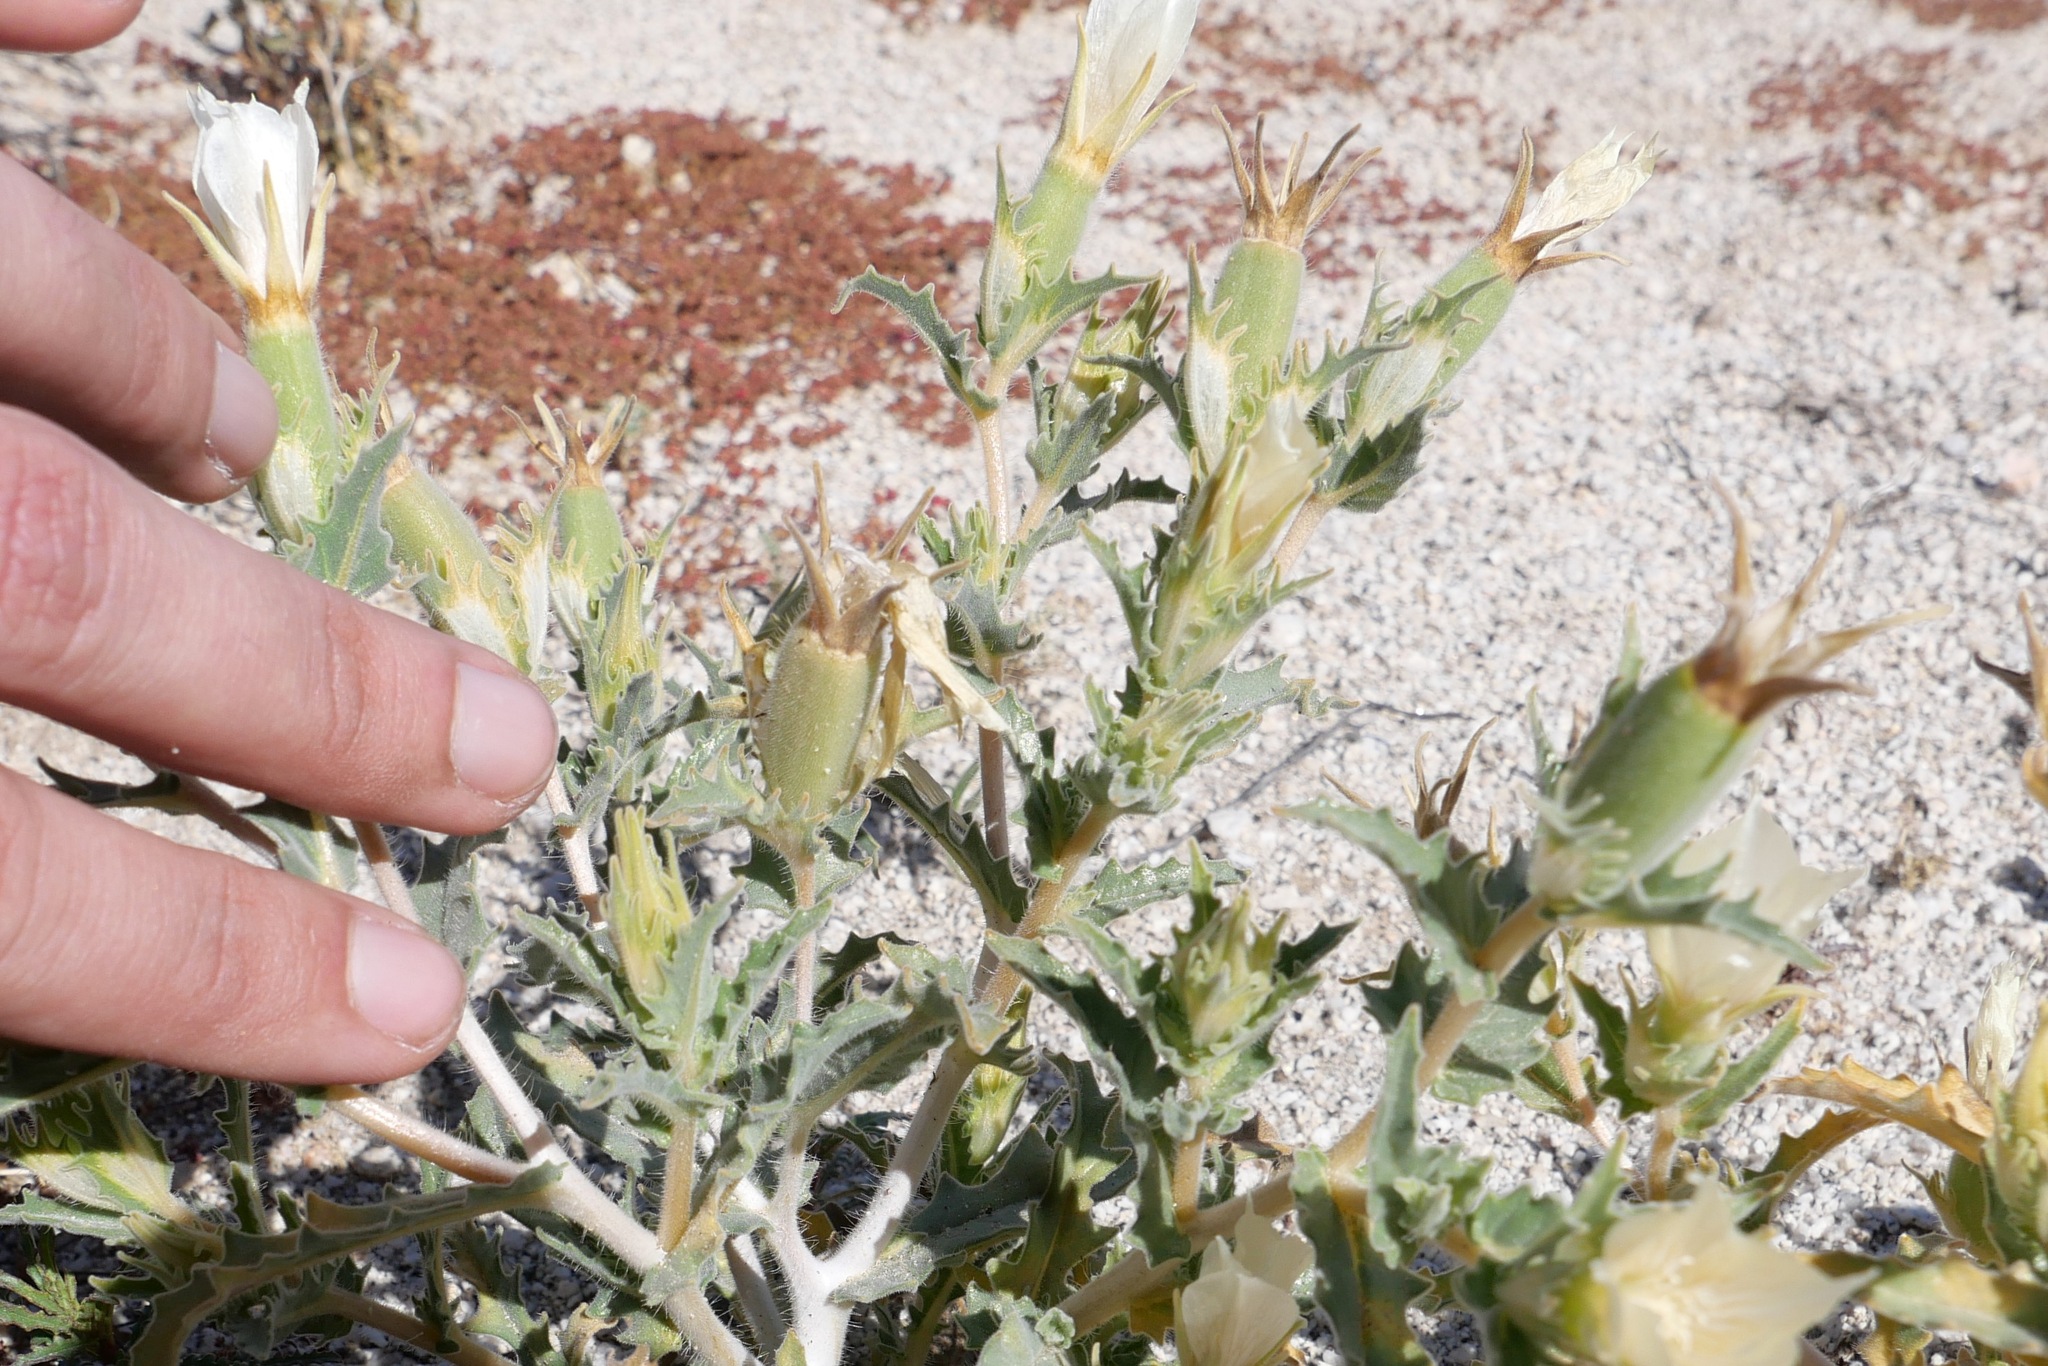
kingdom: Plantae
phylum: Tracheophyta
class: Magnoliopsida
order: Cornales
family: Loasaceae
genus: Mentzelia
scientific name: Mentzelia involucrata
